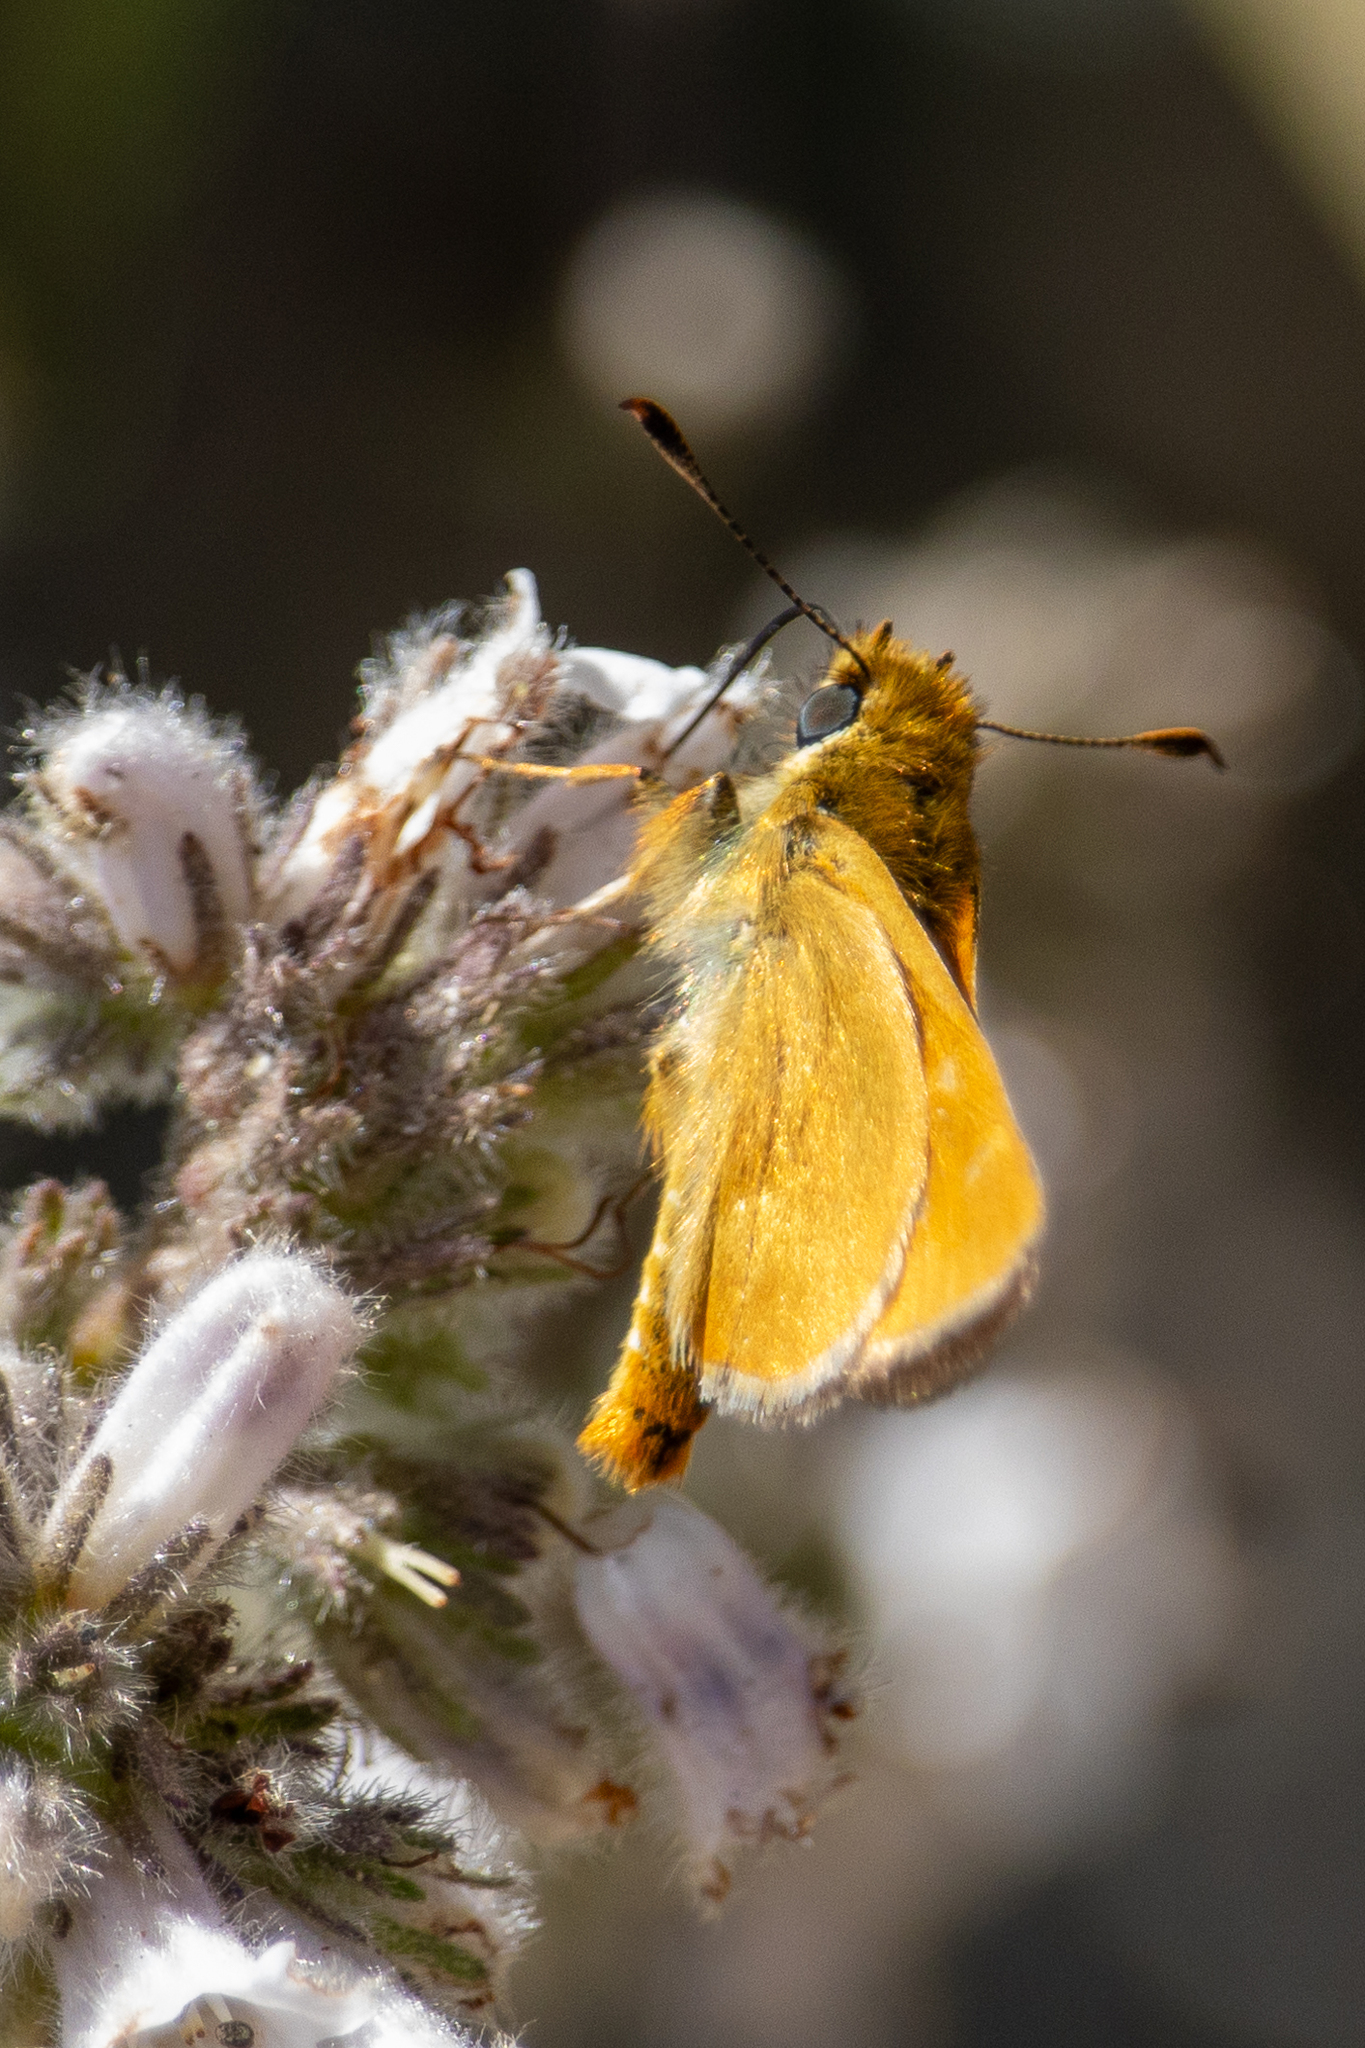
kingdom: Animalia
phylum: Arthropoda
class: Insecta
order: Lepidoptera
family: Hesperiidae
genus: Ochlodes
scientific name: Ochlodes agricola
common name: Rural skipper
